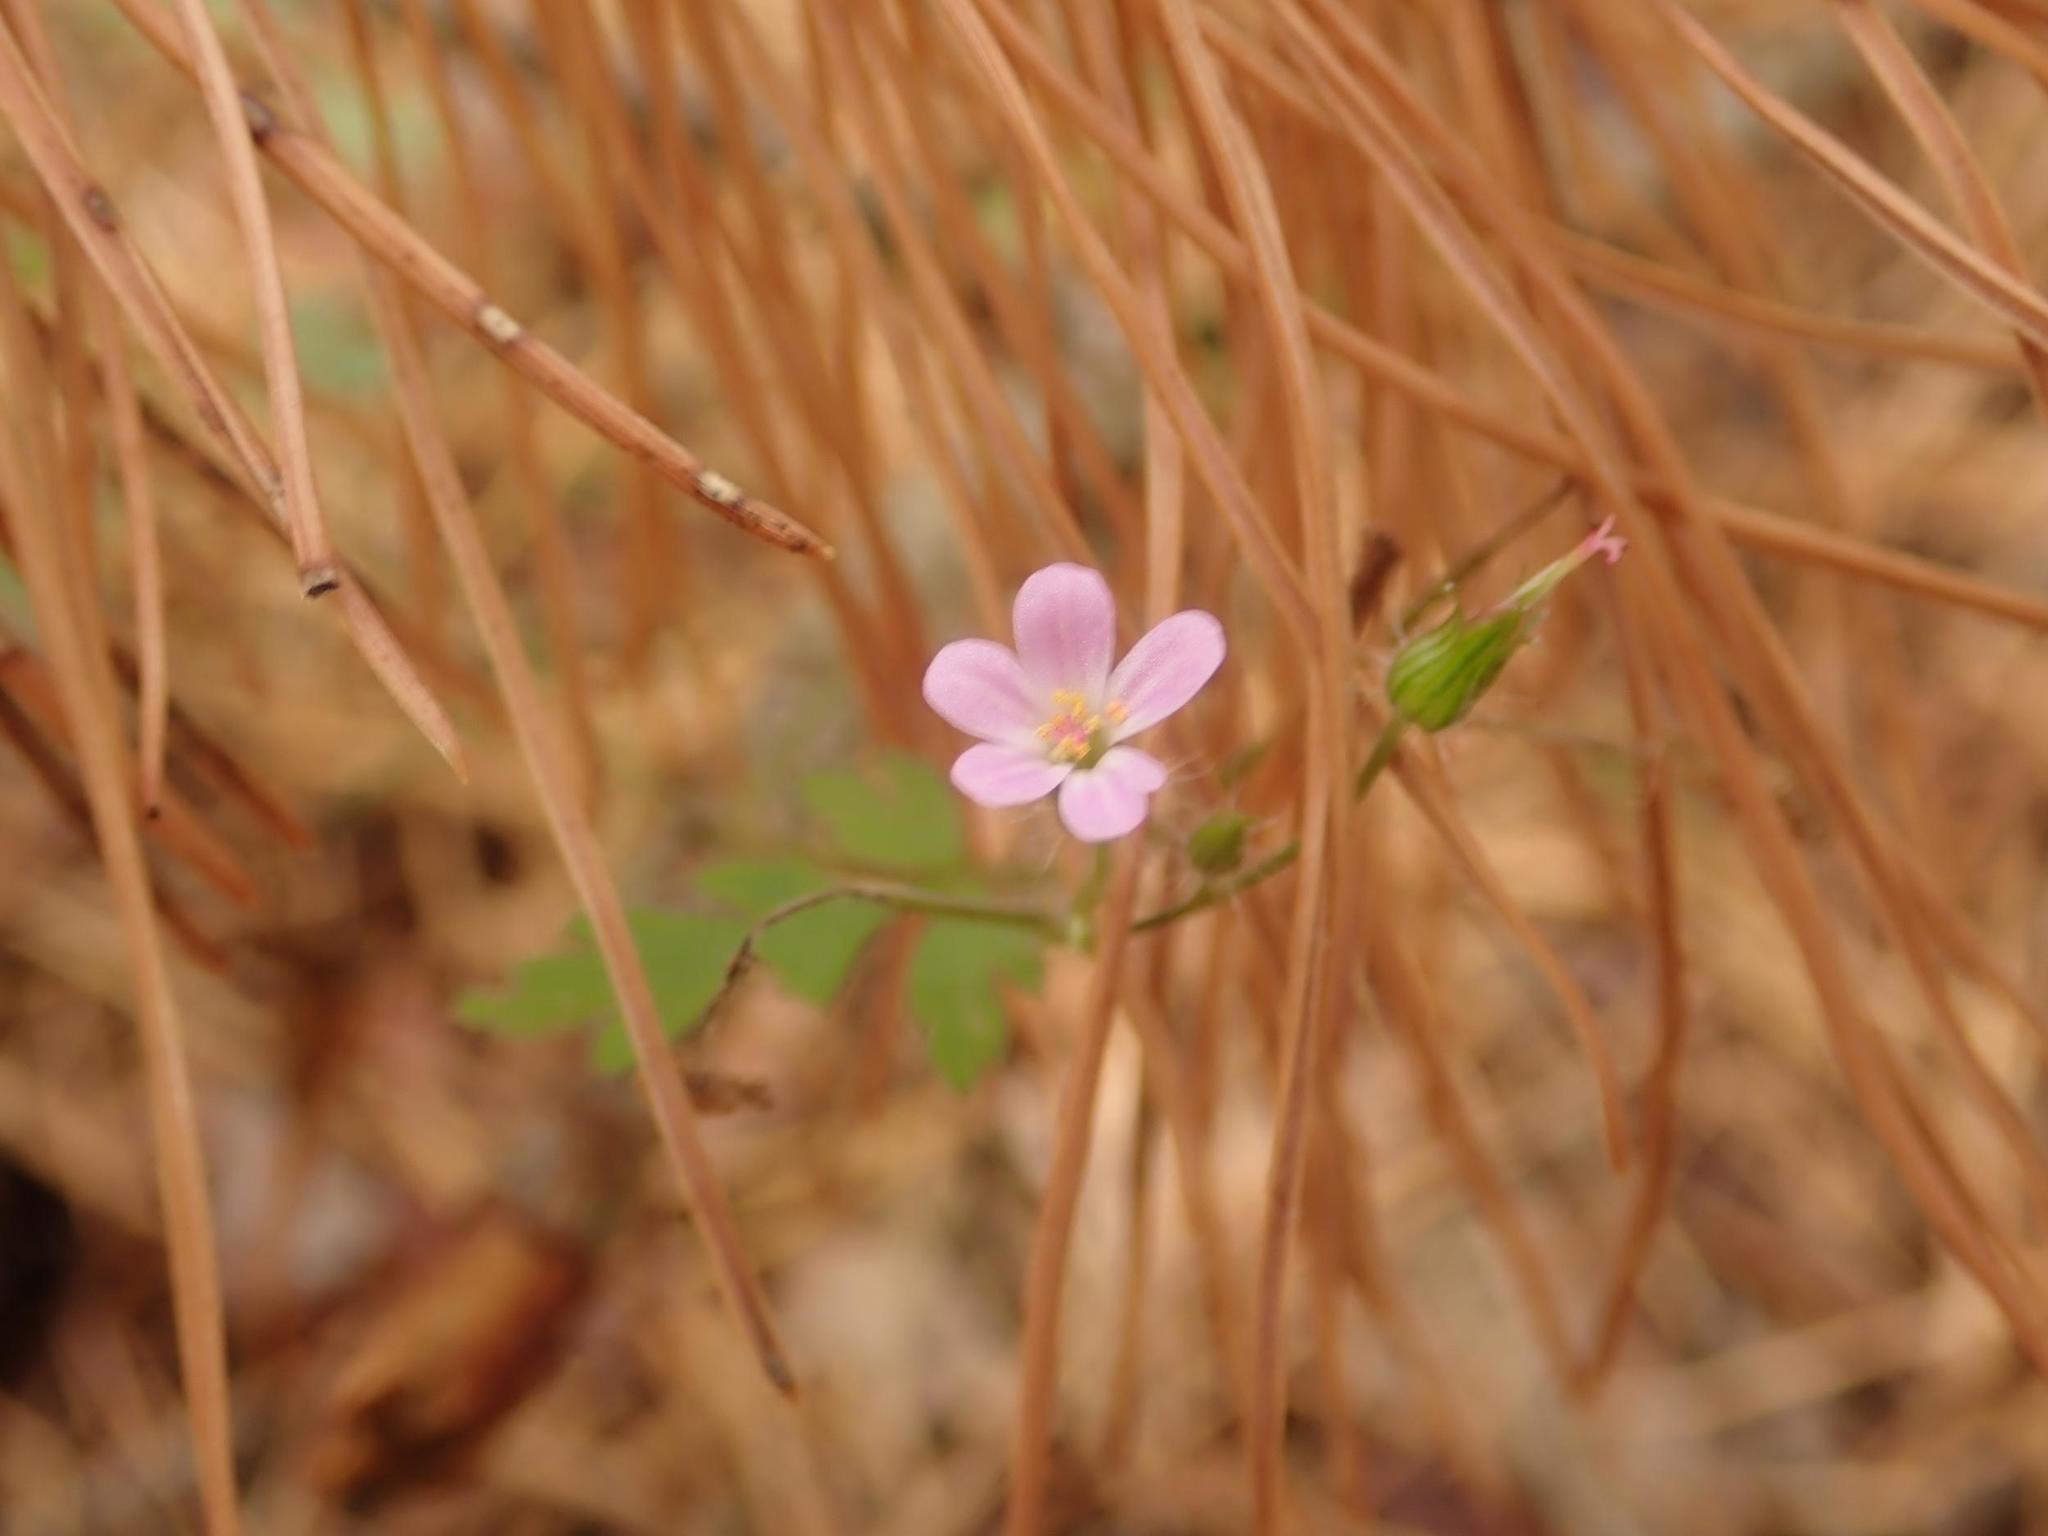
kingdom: Plantae
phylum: Tracheophyta
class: Magnoliopsida
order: Geraniales
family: Geraniaceae
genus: Geranium
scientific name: Geranium robertianum
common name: Herb-robert
